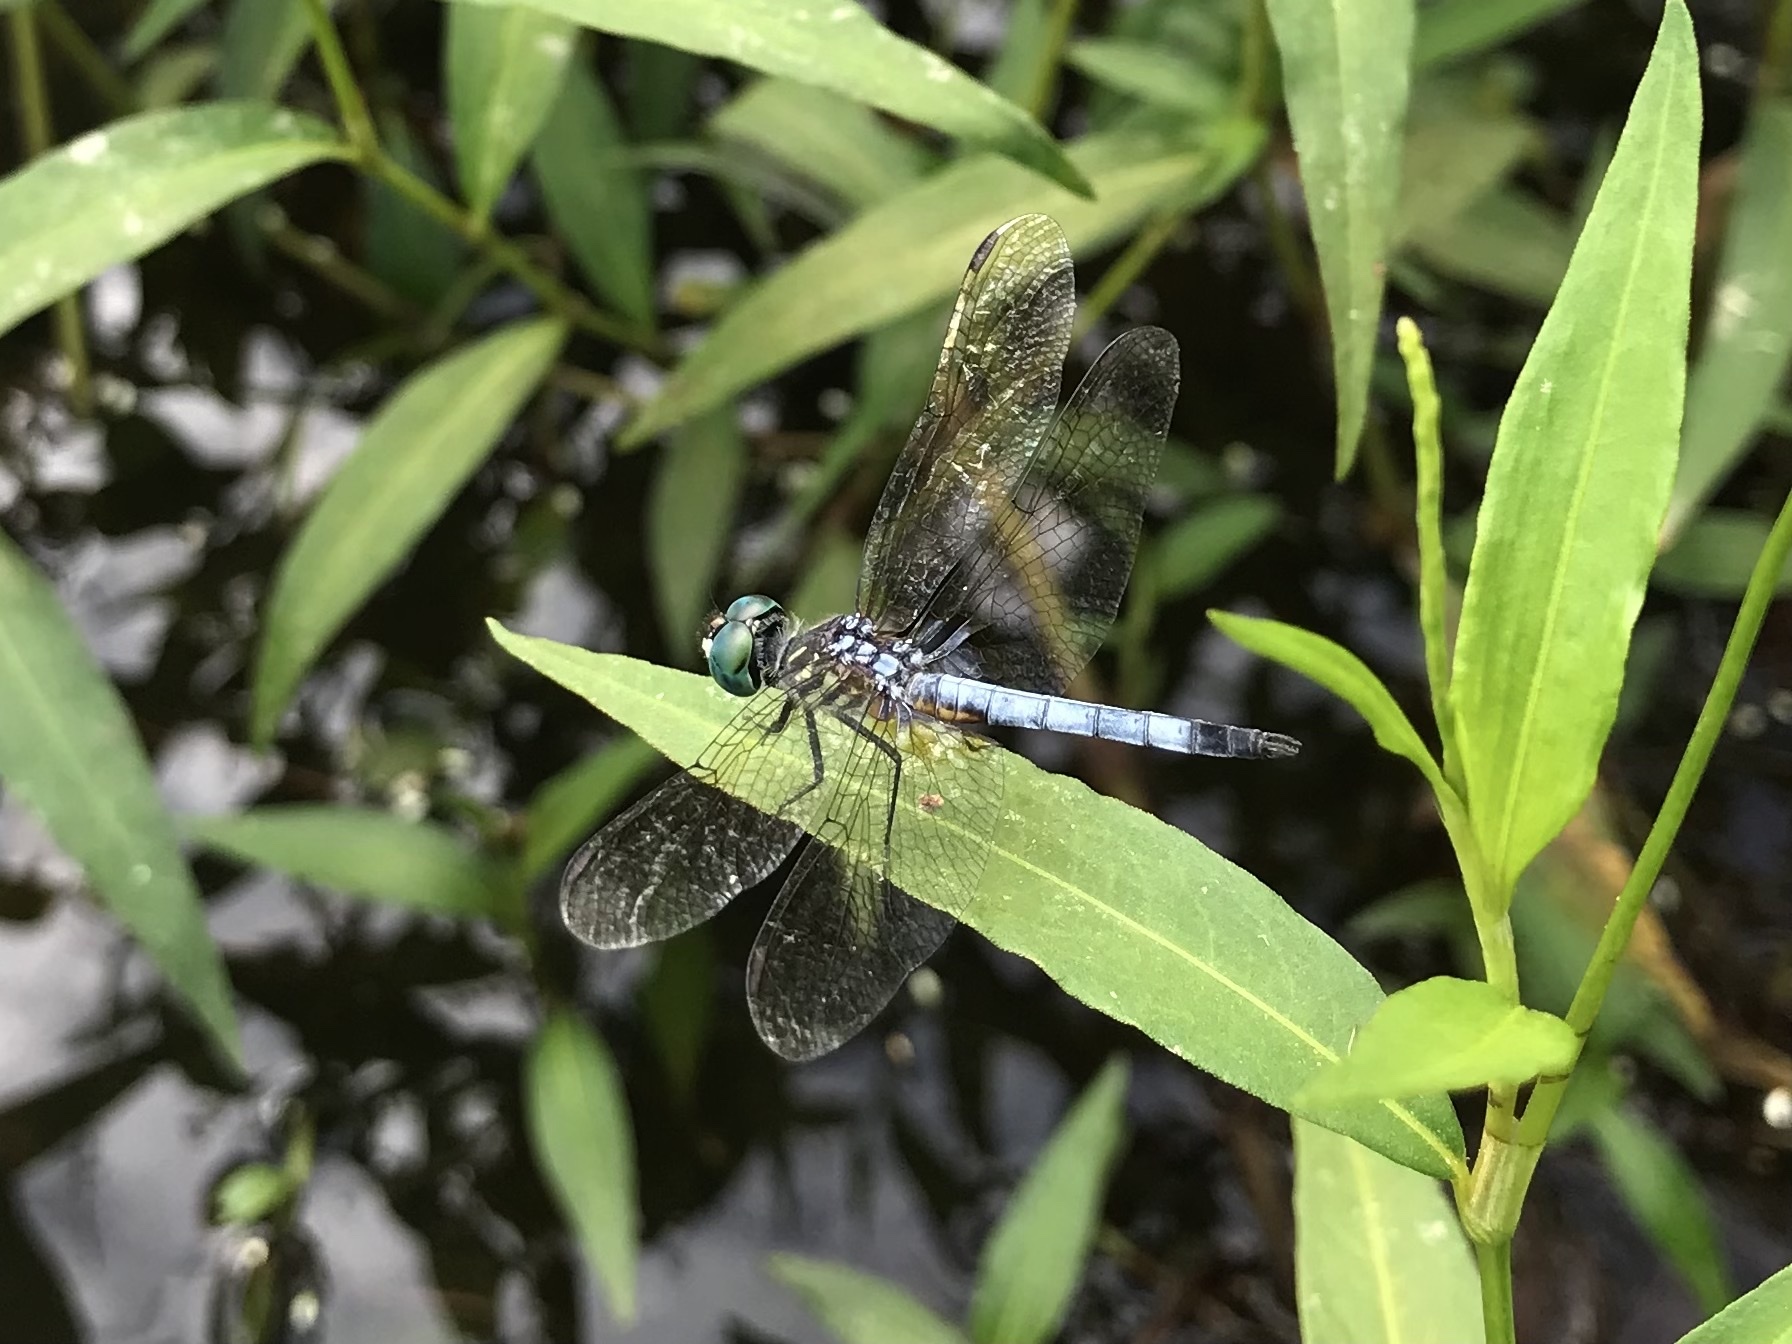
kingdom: Animalia
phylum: Arthropoda
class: Insecta
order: Odonata
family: Libellulidae
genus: Pachydiplax
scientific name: Pachydiplax longipennis
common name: Blue dasher
